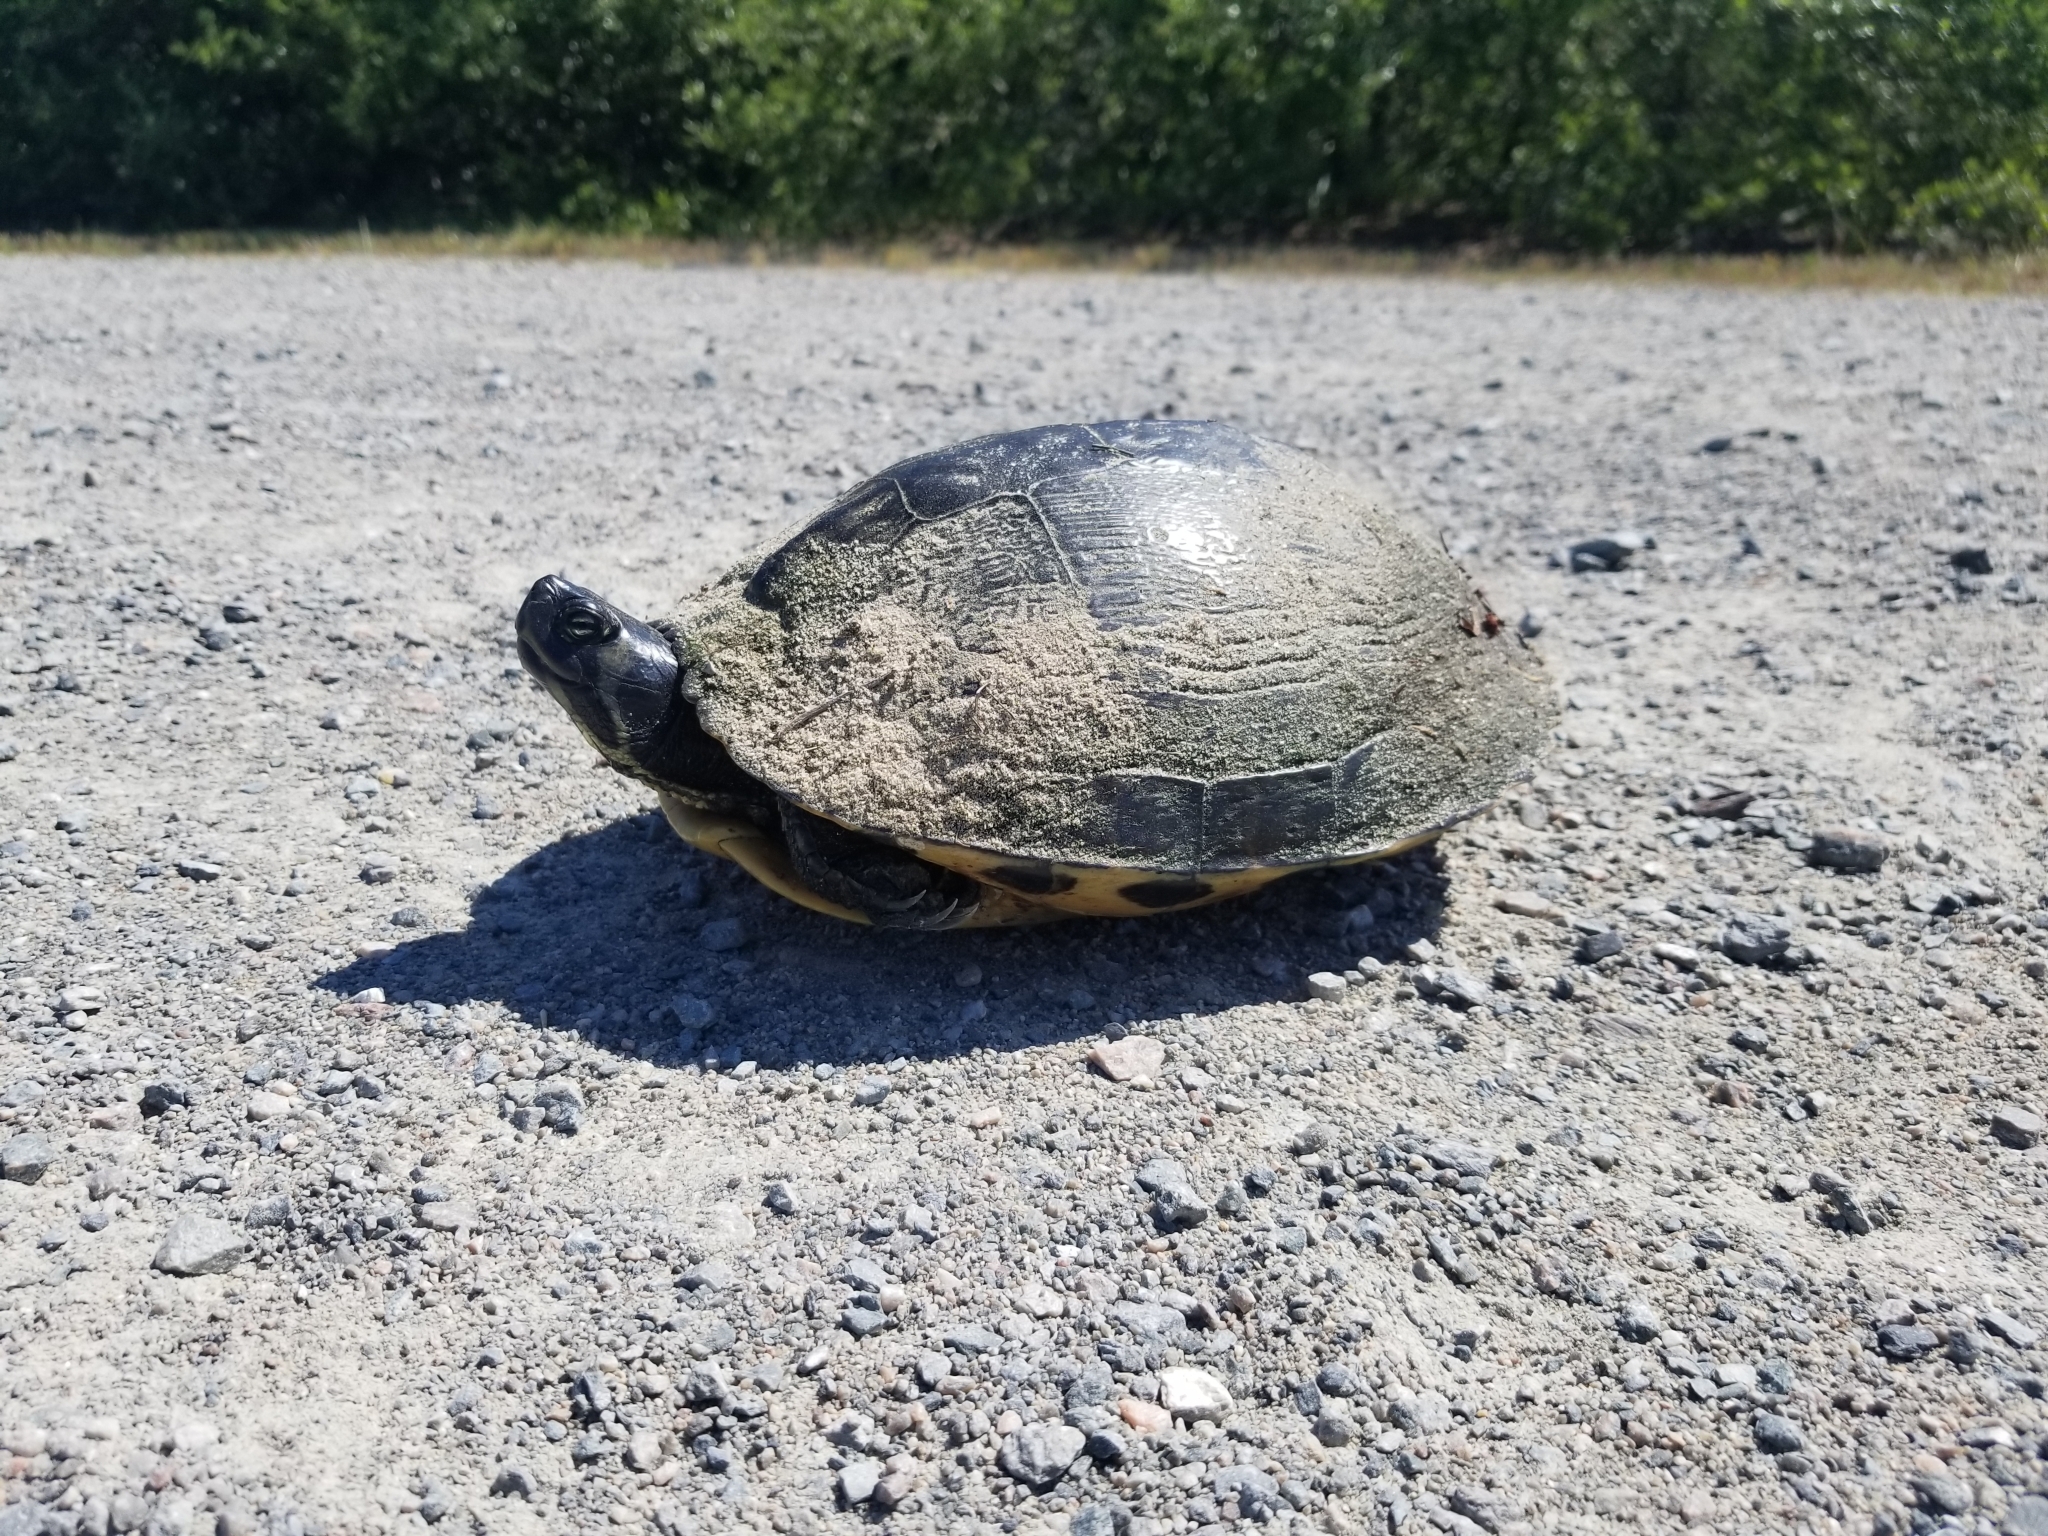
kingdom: Animalia
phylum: Chordata
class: Testudines
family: Emydidae
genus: Trachemys
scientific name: Trachemys scripta
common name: Slider
